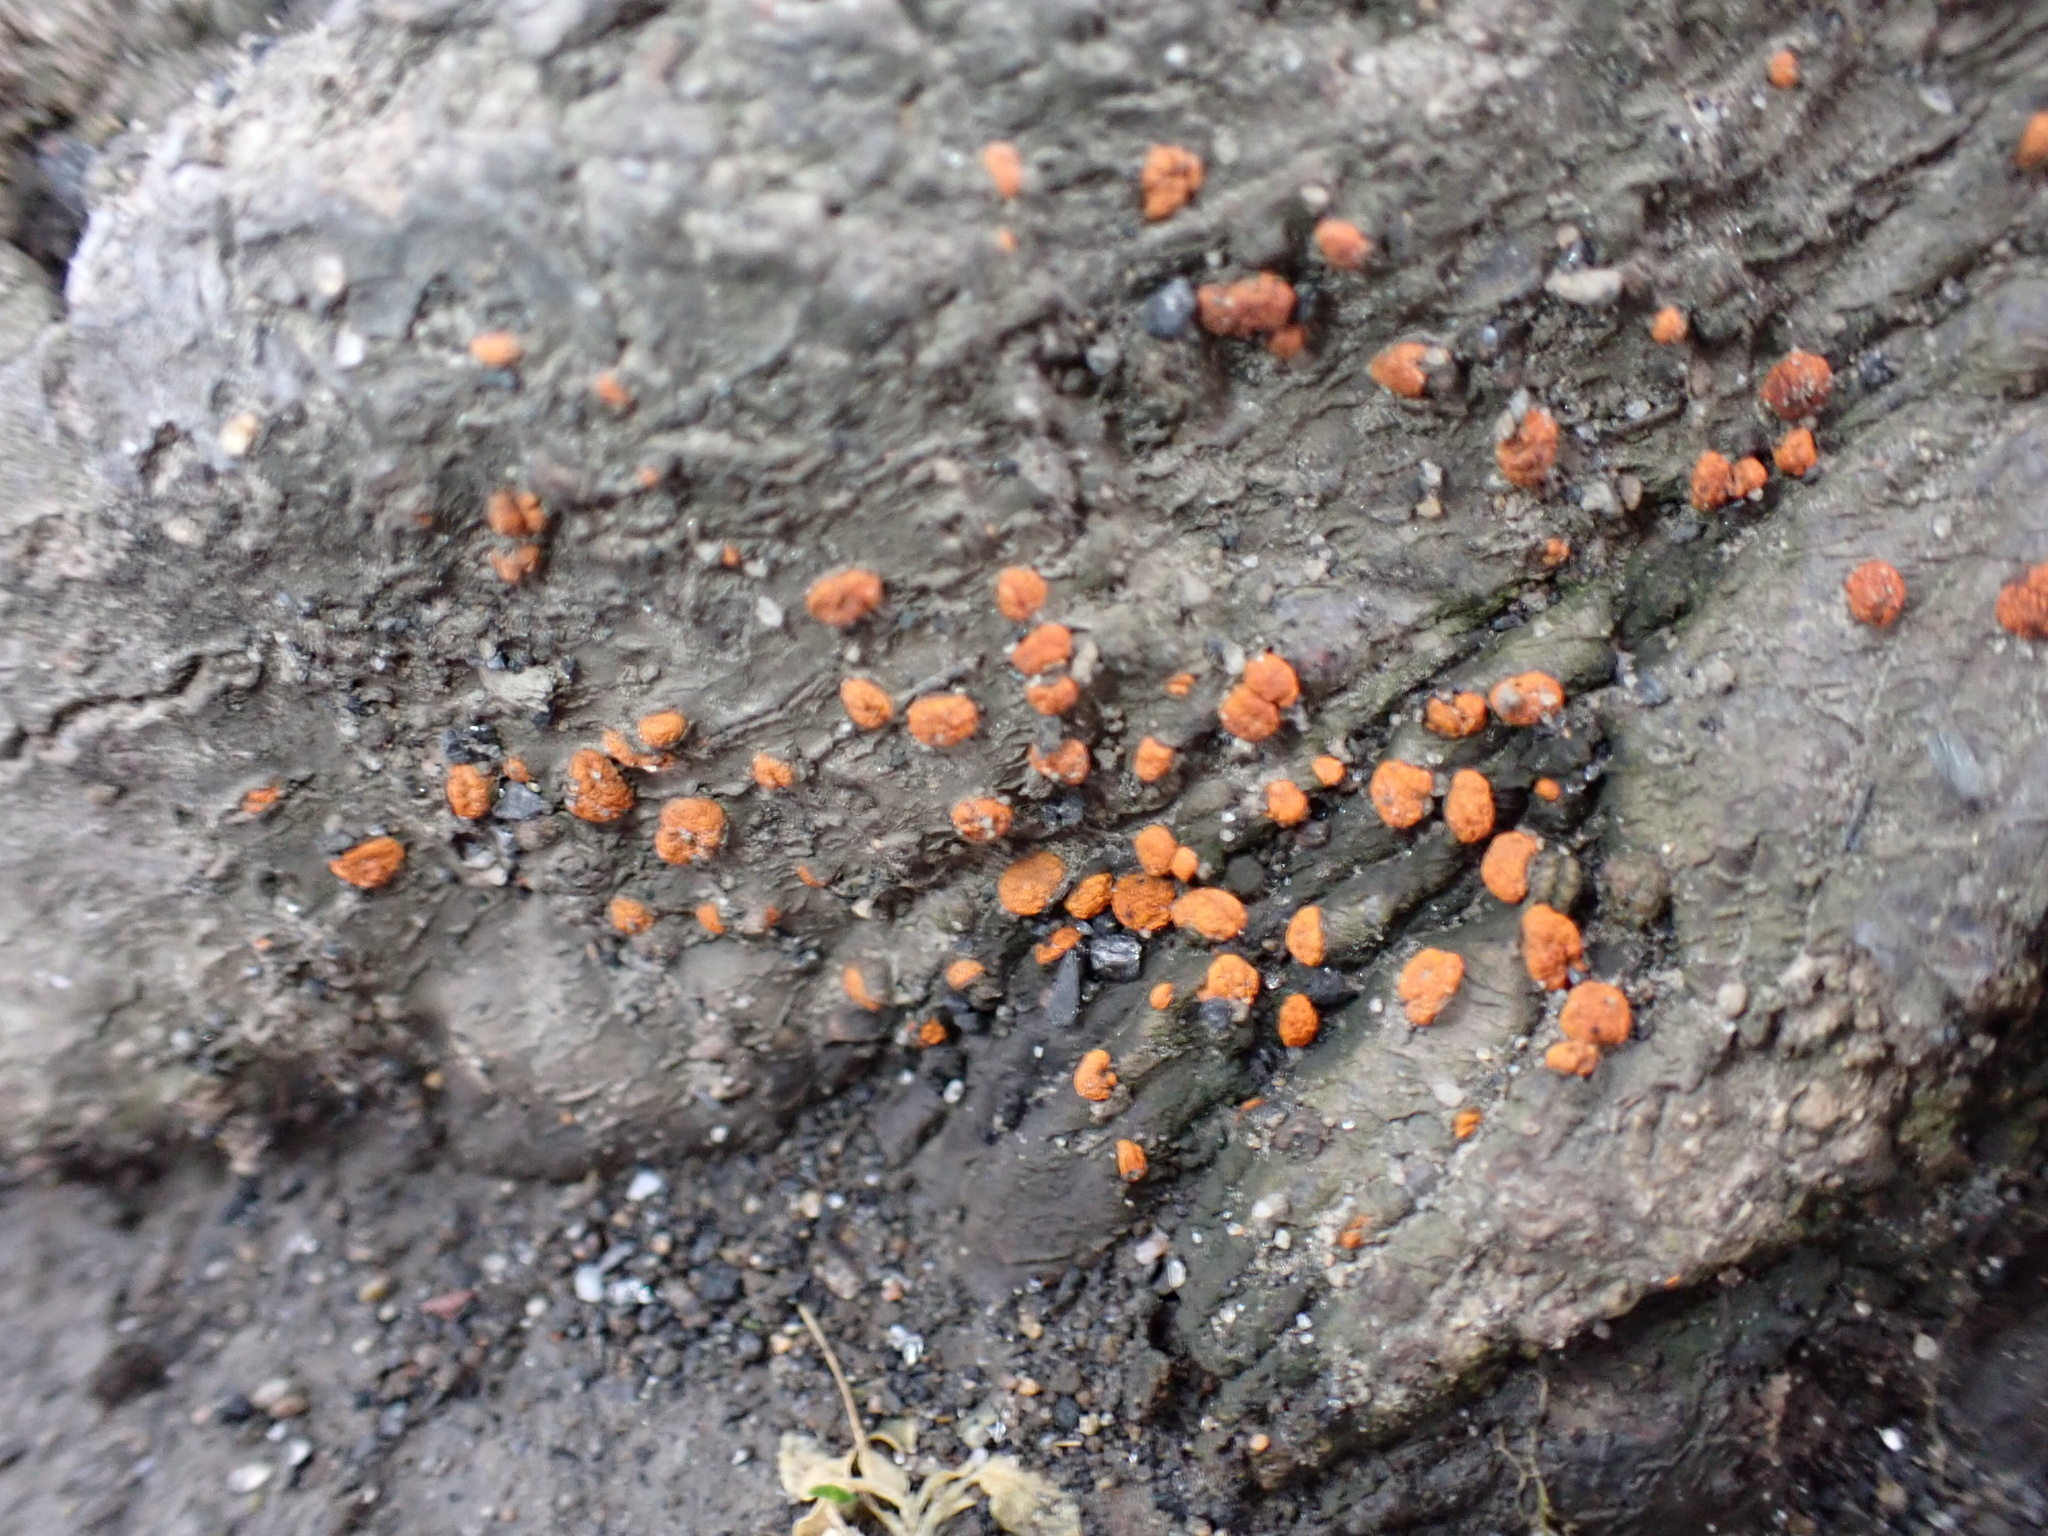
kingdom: Fungi
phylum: Ascomycota
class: Sordariomycetes
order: Diaporthales
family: Cryphonectriaceae
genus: Amphilogia
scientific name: Amphilogia gyrosa
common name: Orange hobnail canker
